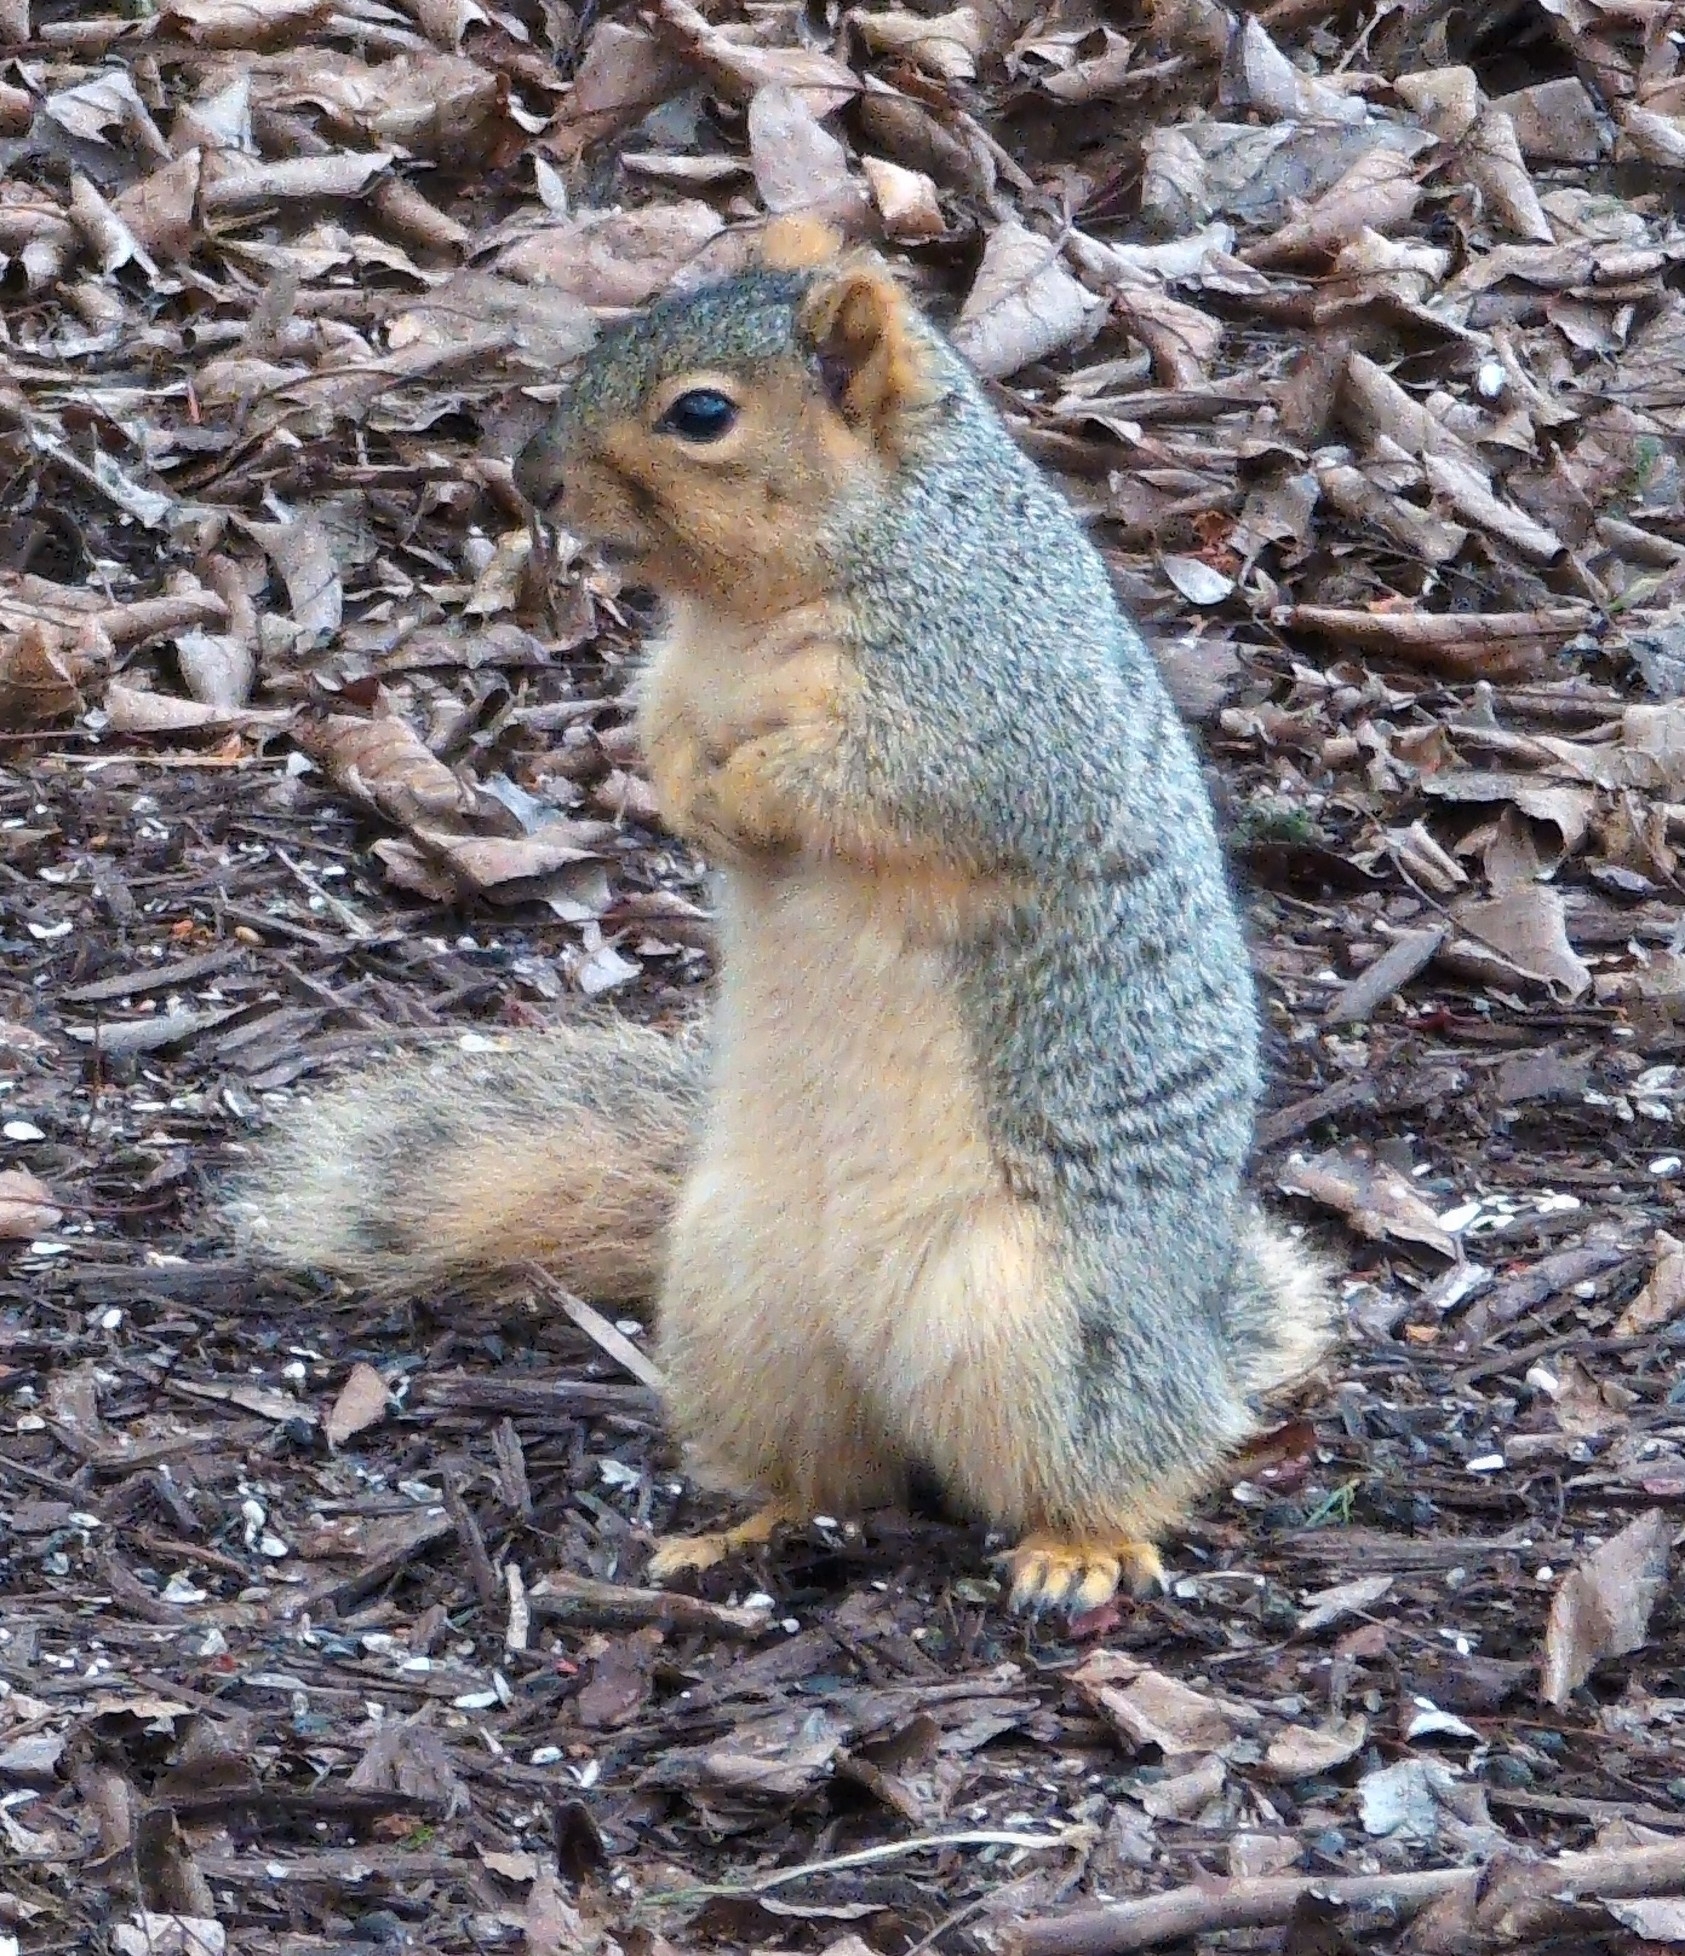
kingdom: Animalia
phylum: Chordata
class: Mammalia
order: Rodentia
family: Sciuridae
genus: Sciurus
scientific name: Sciurus niger
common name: Fox squirrel
